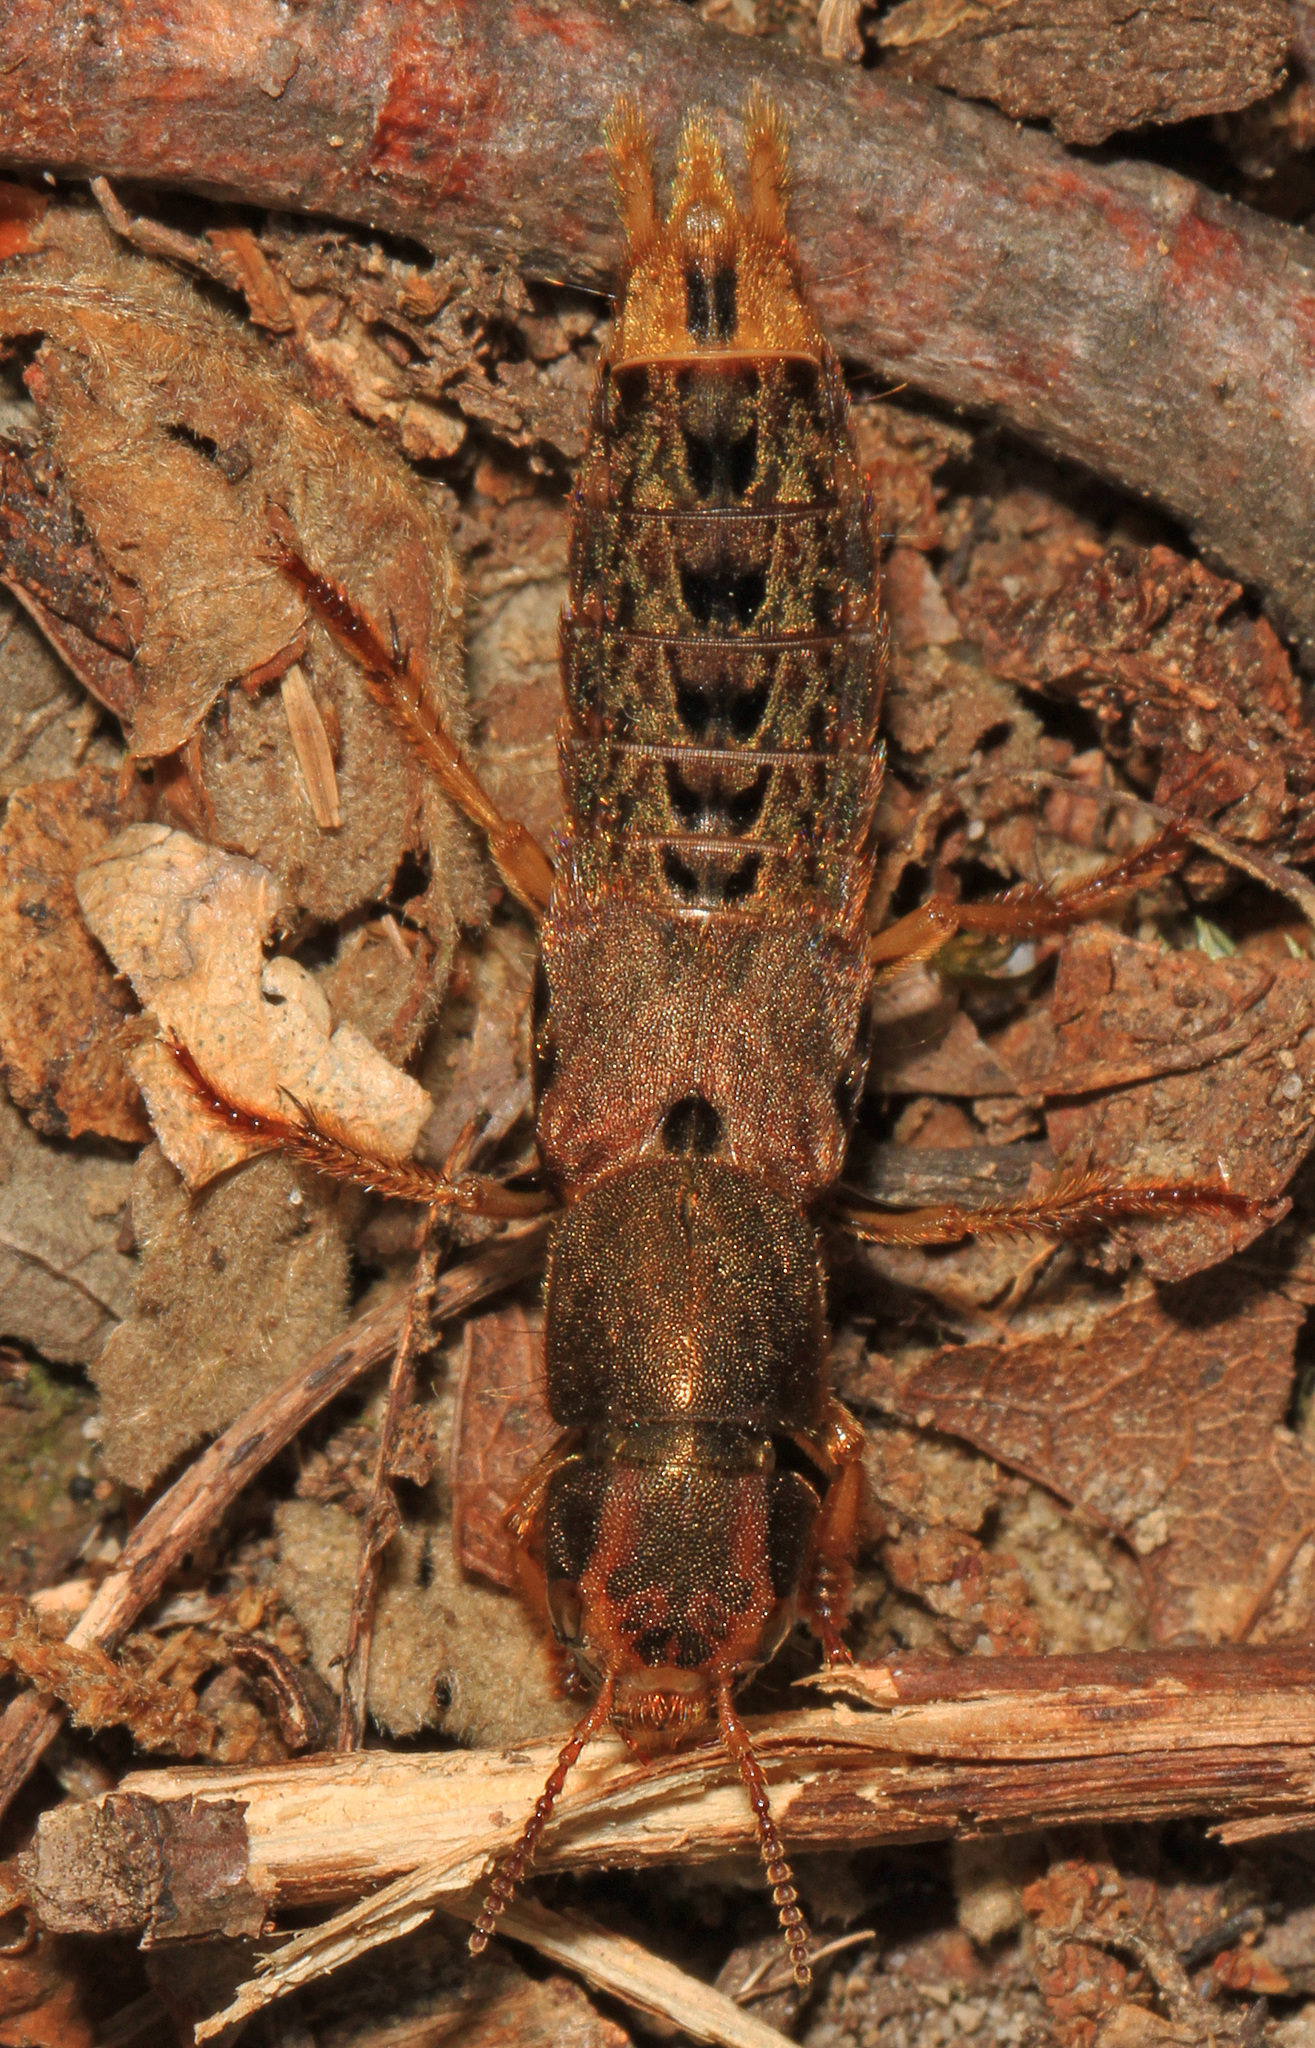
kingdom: Animalia
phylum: Arthropoda
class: Insecta
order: Coleoptera
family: Staphylinidae
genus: Platydracus
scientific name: Platydracus maculosus
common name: Brown rove beetle
